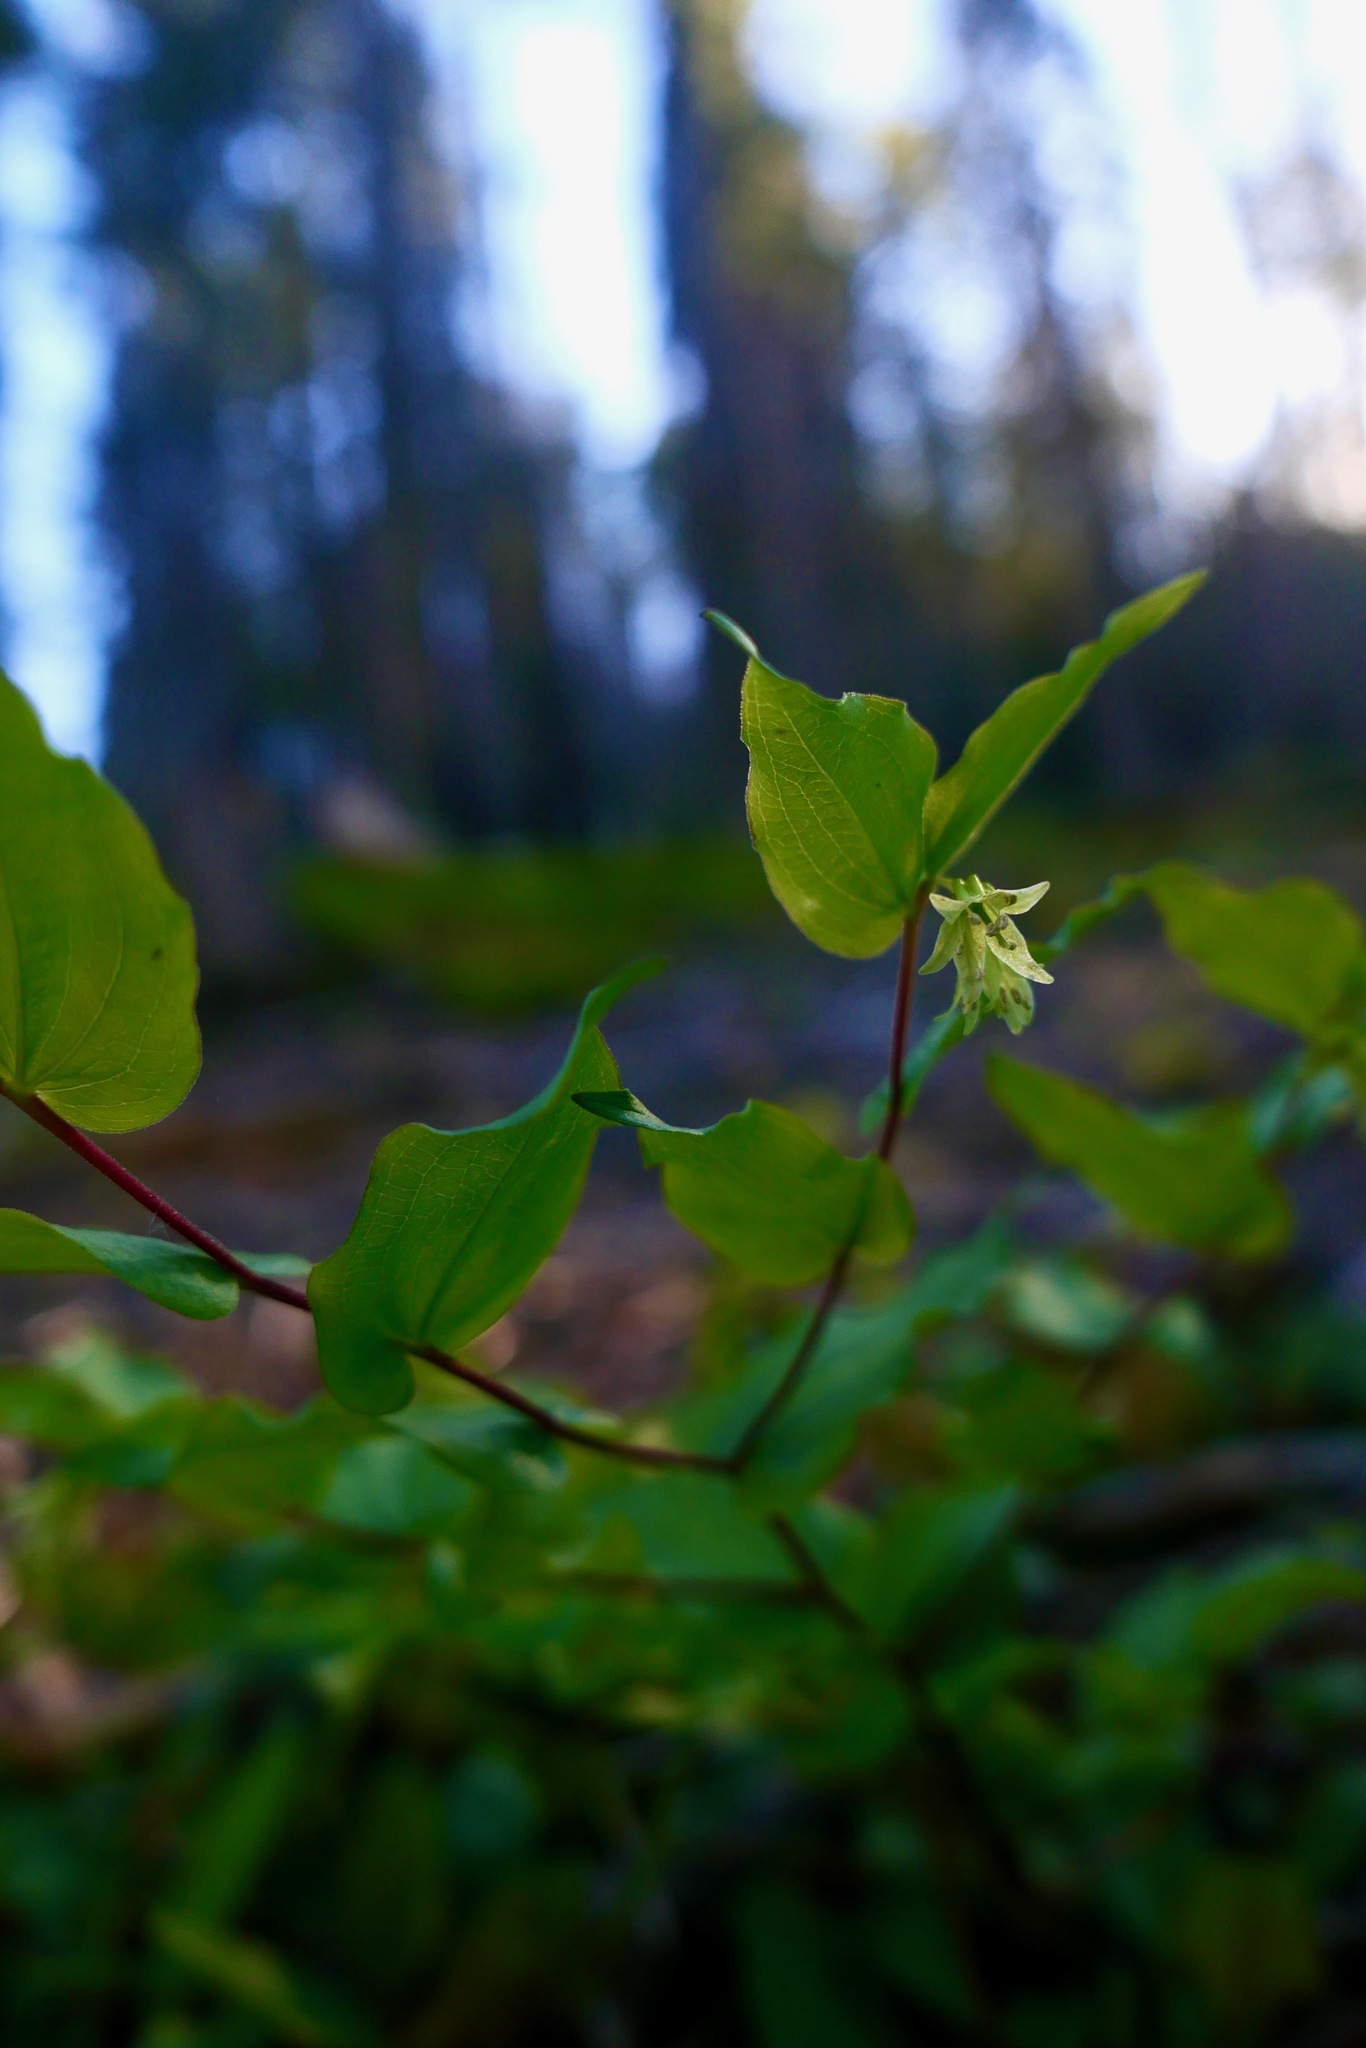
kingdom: Plantae
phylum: Tracheophyta
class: Liliopsida
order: Liliales
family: Liliaceae
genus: Prosartes
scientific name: Prosartes hookeri
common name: Fairy-bells
